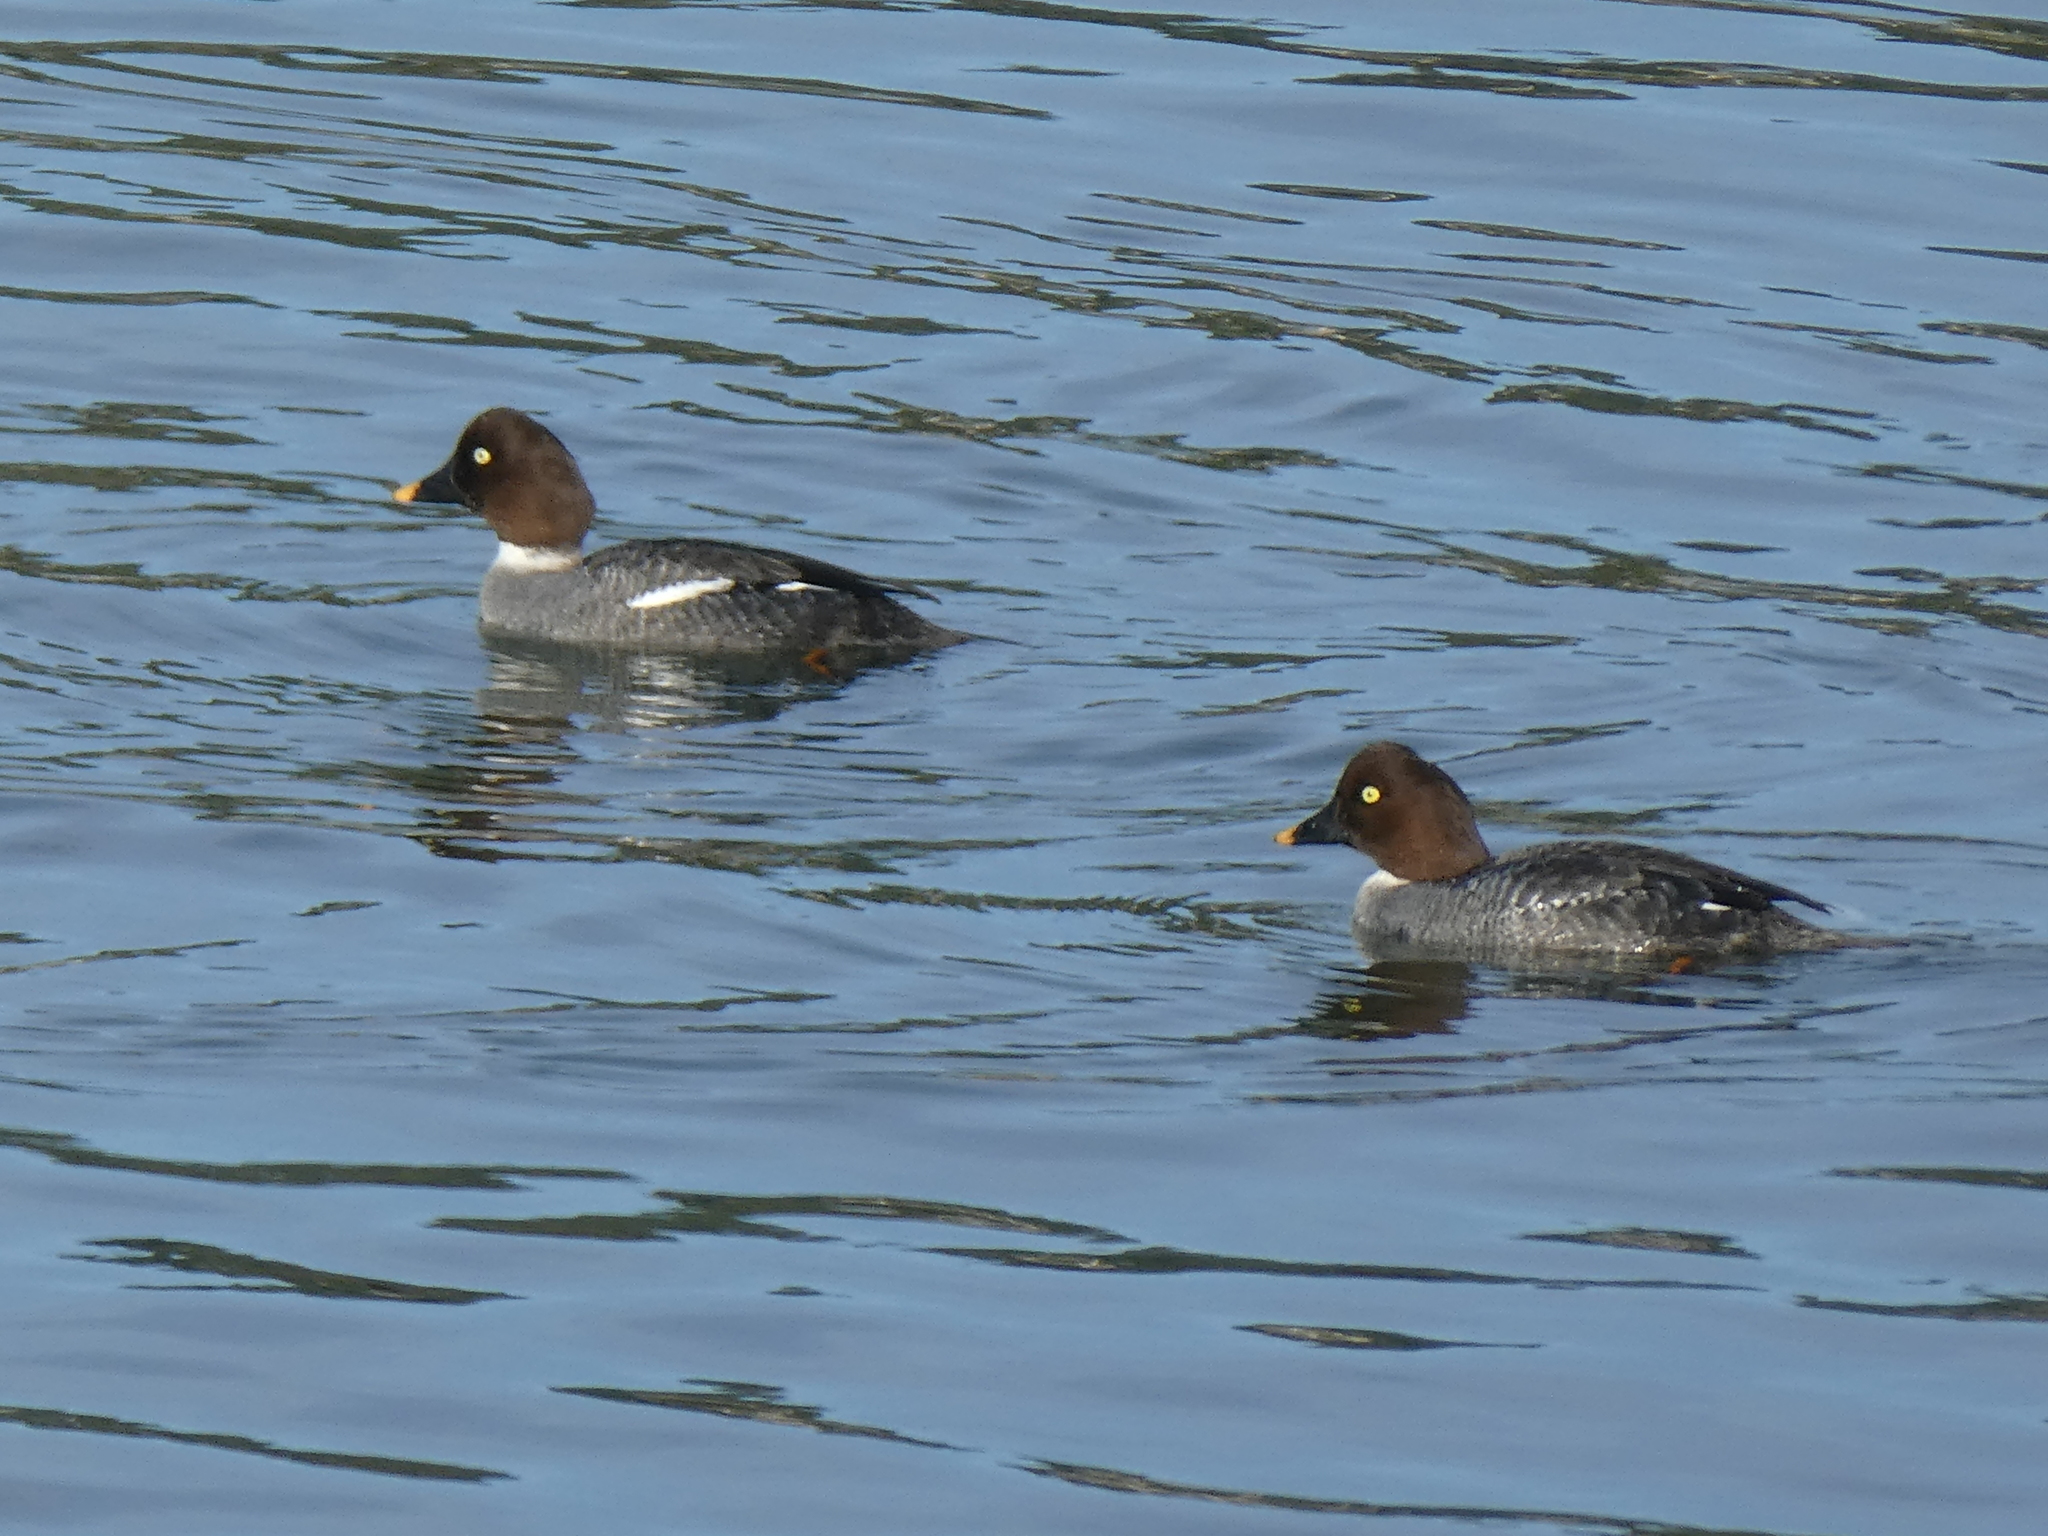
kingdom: Animalia
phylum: Chordata
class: Aves
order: Anseriformes
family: Anatidae
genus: Bucephala
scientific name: Bucephala clangula
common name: Common goldeneye
